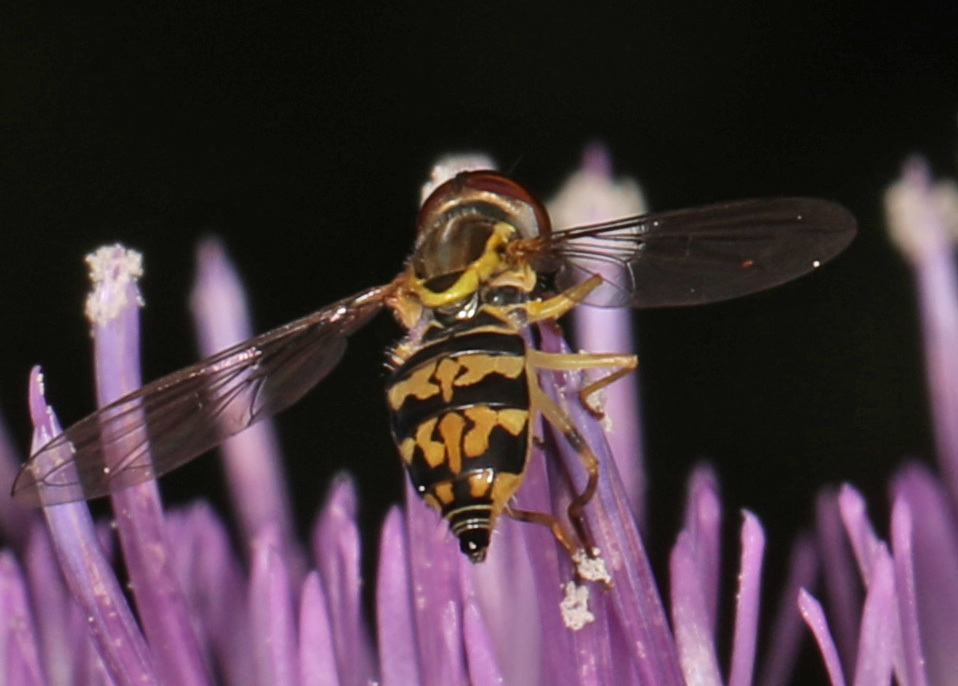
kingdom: Animalia
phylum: Arthropoda
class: Insecta
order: Diptera
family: Syrphidae
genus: Toxomerus
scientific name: Toxomerus geminatus
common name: Eastern calligrapher
